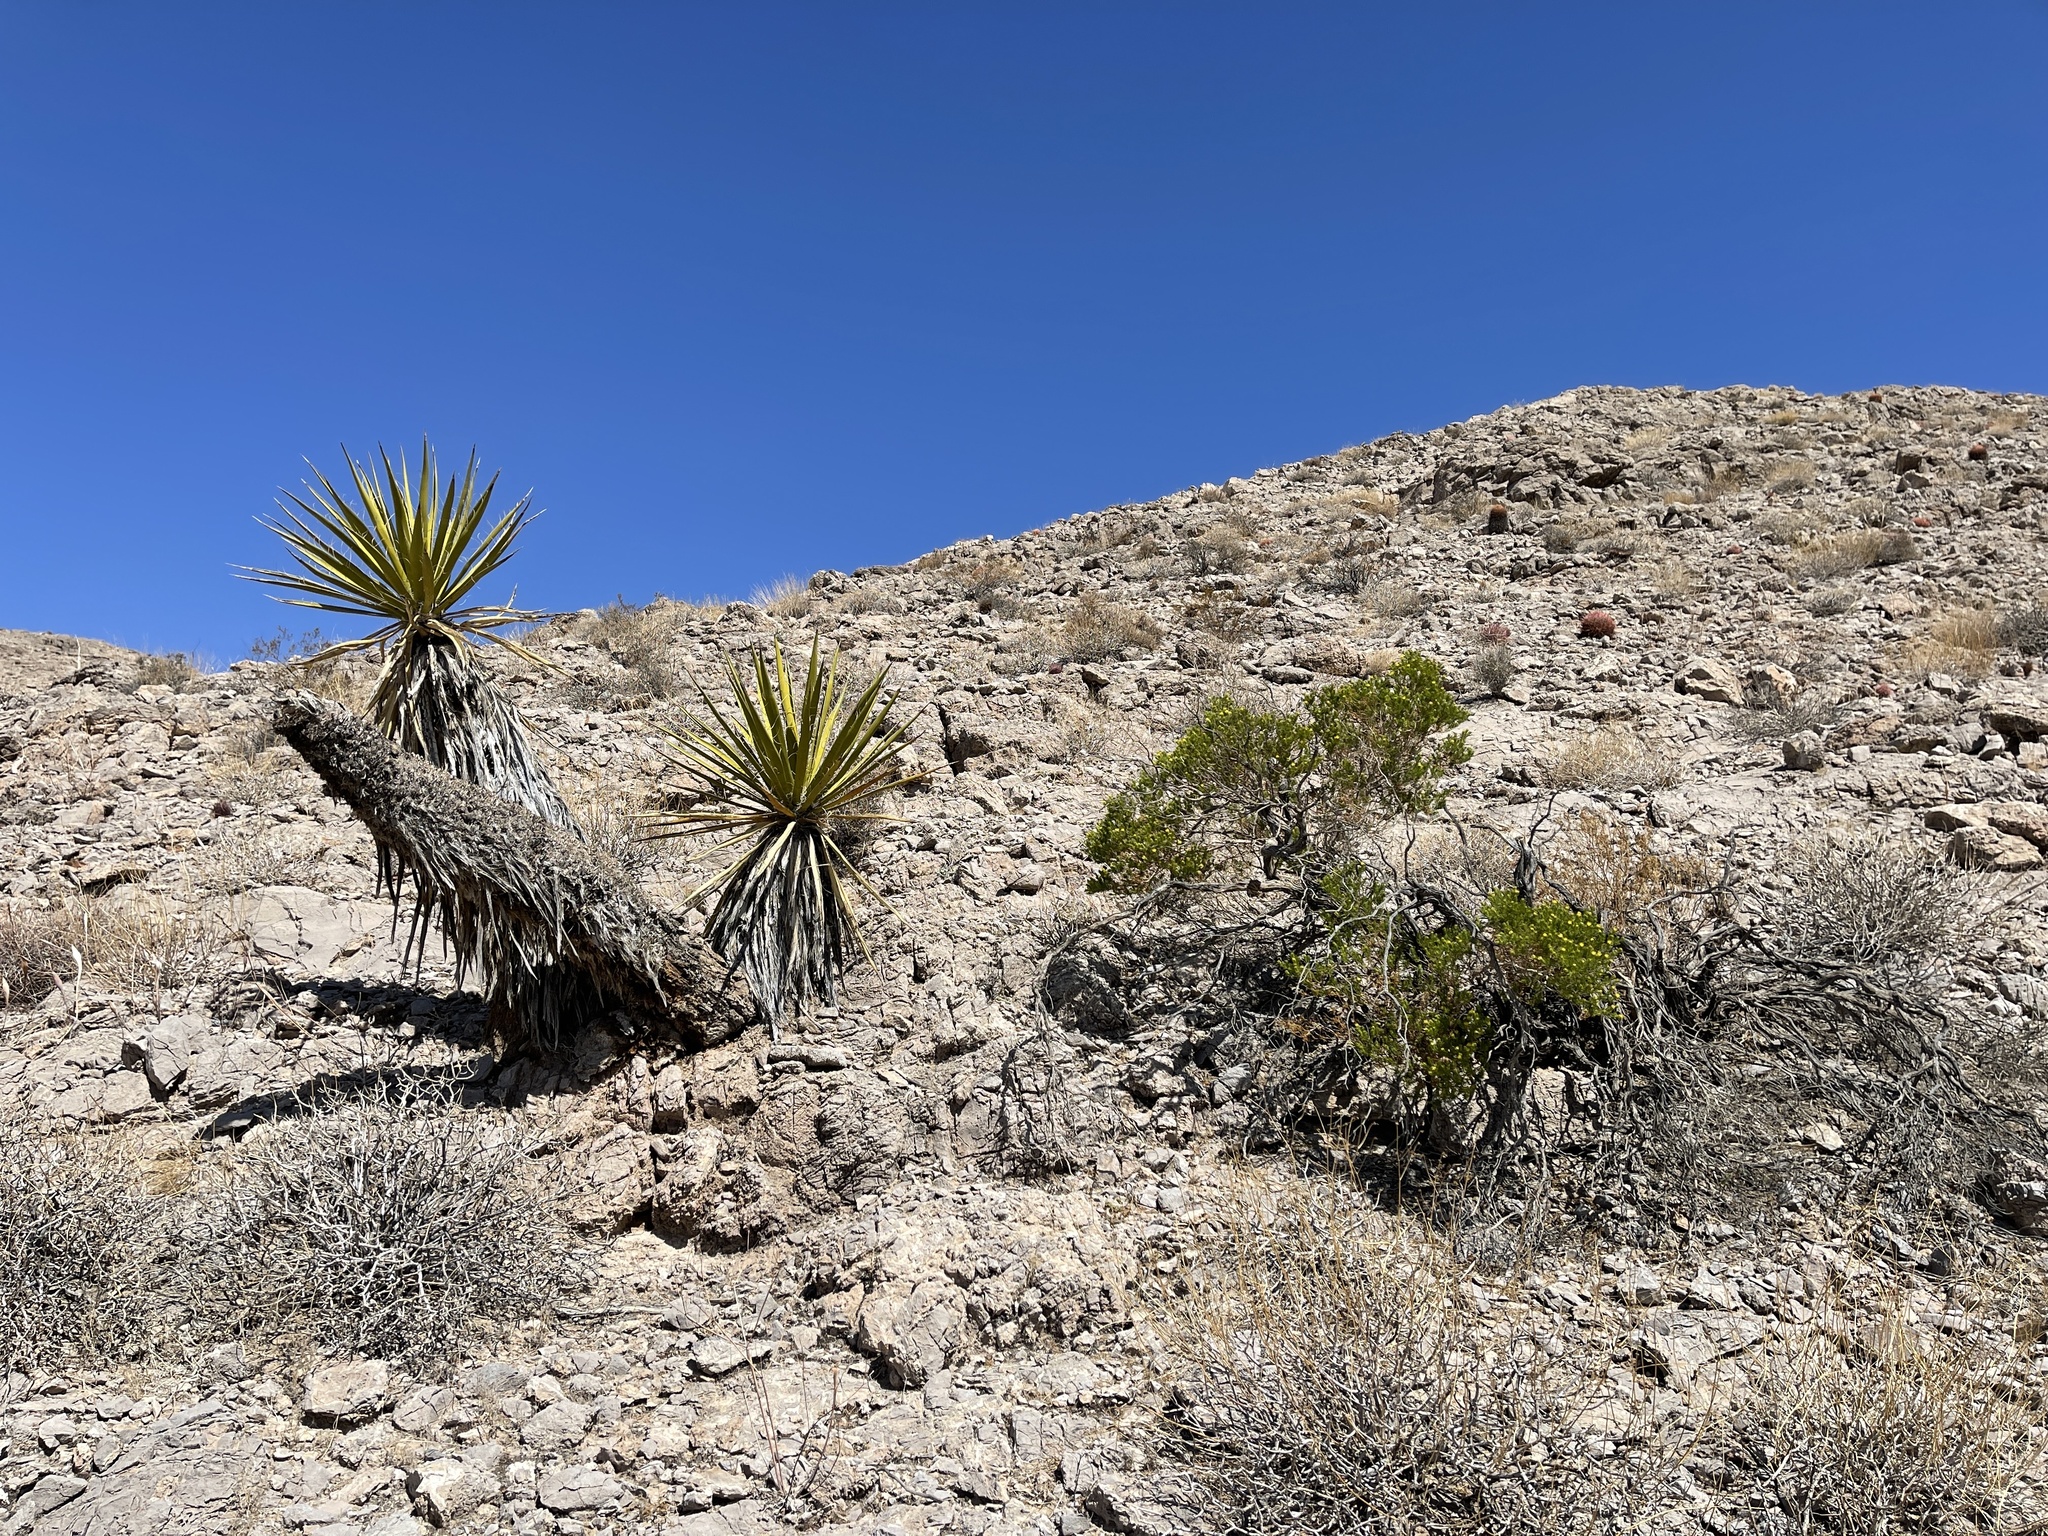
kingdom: Plantae
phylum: Tracheophyta
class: Magnoliopsida
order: Asterales
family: Asteraceae
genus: Peucephyllum
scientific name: Peucephyllum schottii
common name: Pygmy-cedar
